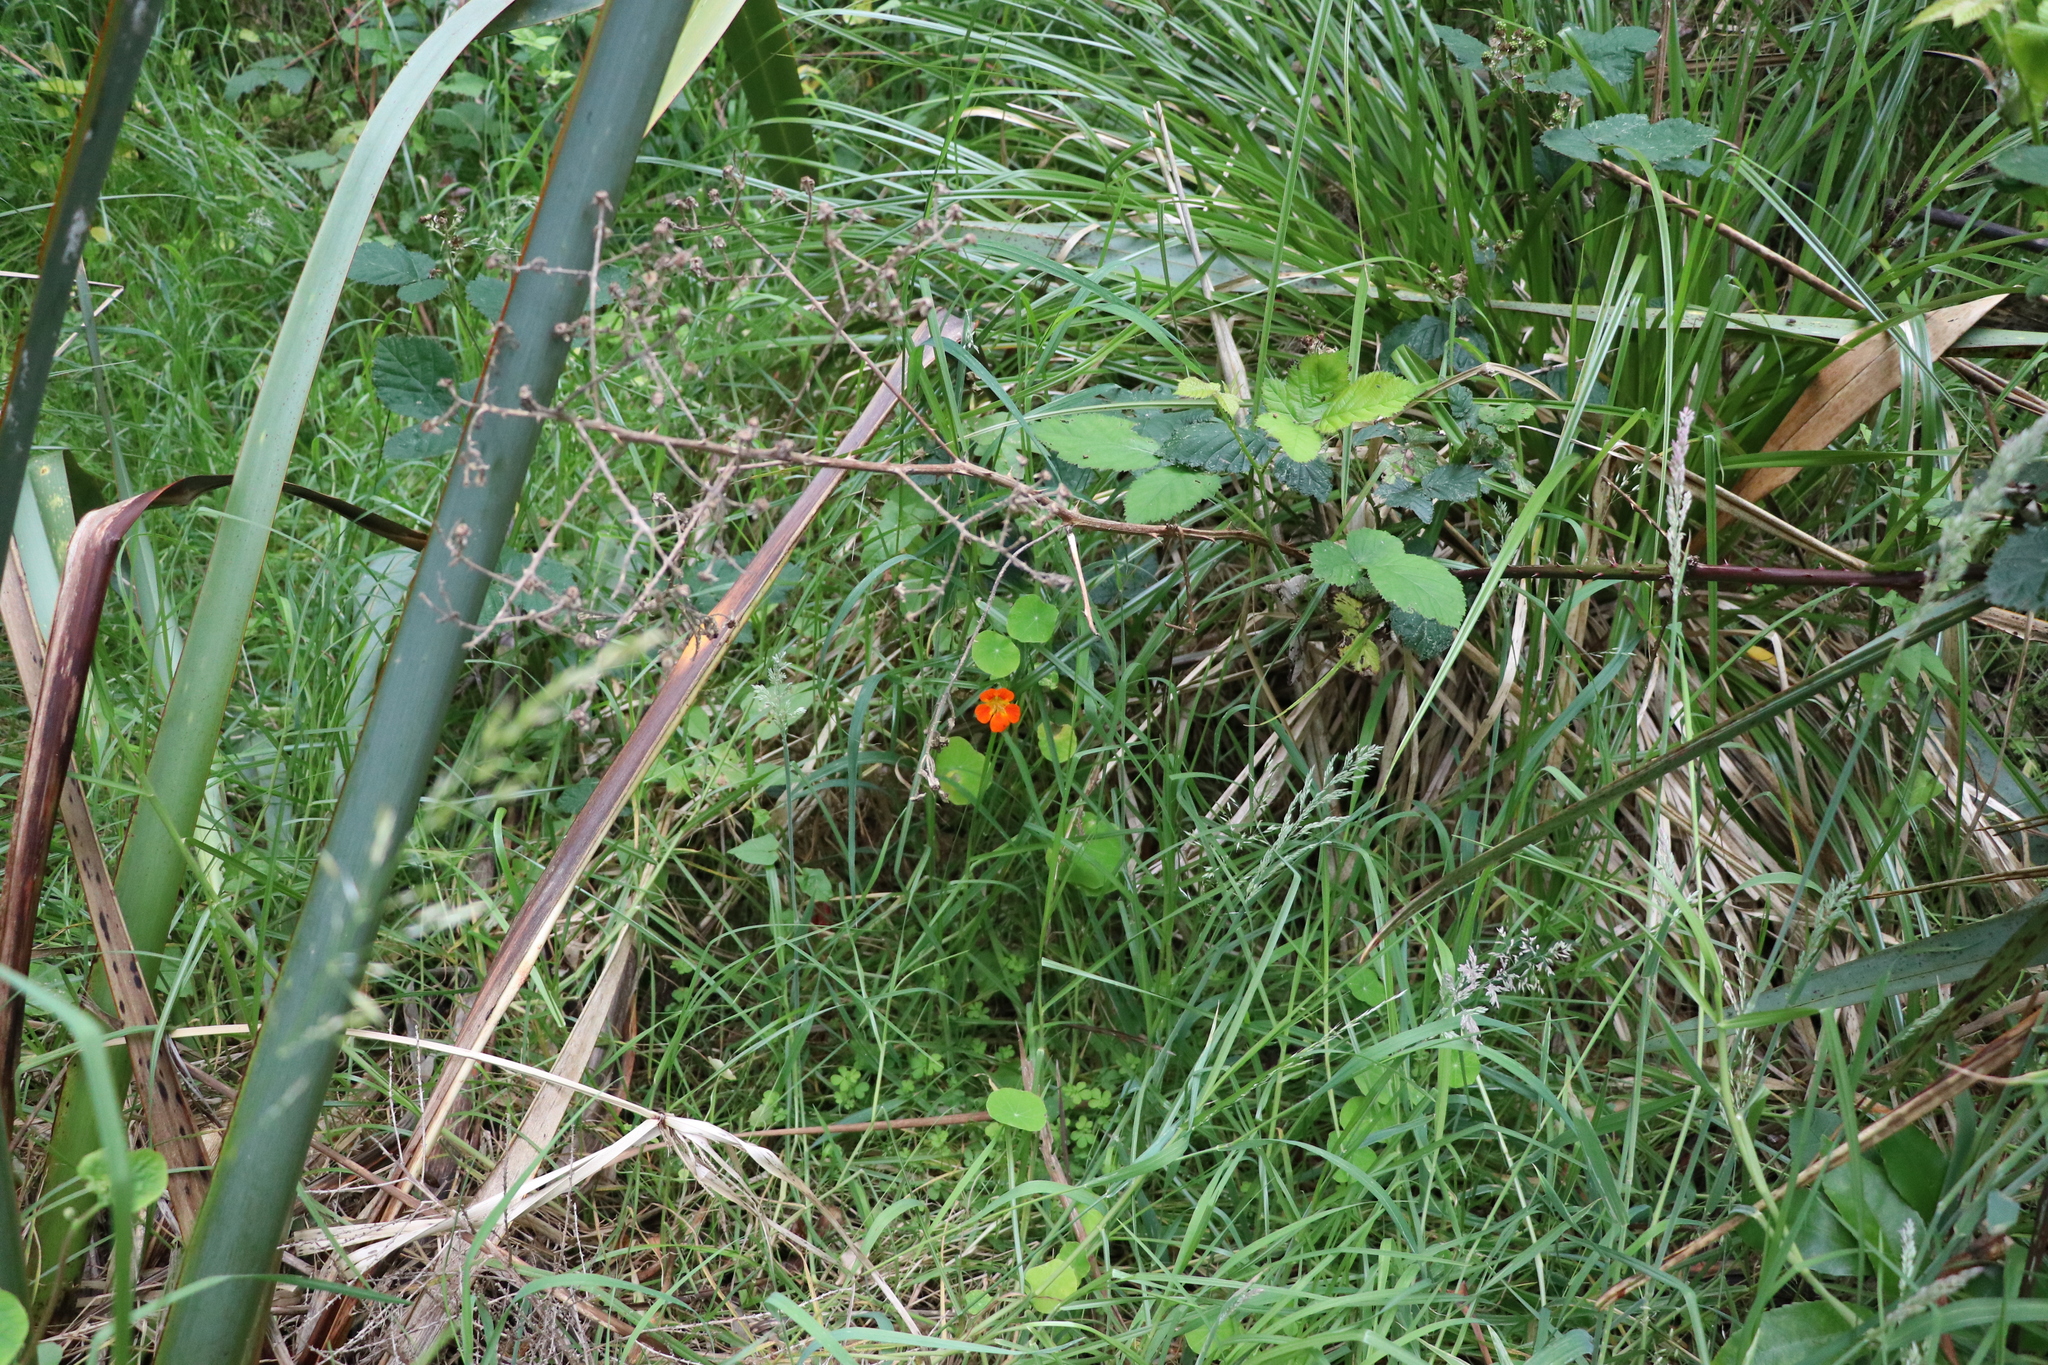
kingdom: Plantae
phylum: Tracheophyta
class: Magnoliopsida
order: Brassicales
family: Tropaeolaceae
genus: Tropaeolum
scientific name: Tropaeolum majus
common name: Nasturtium
